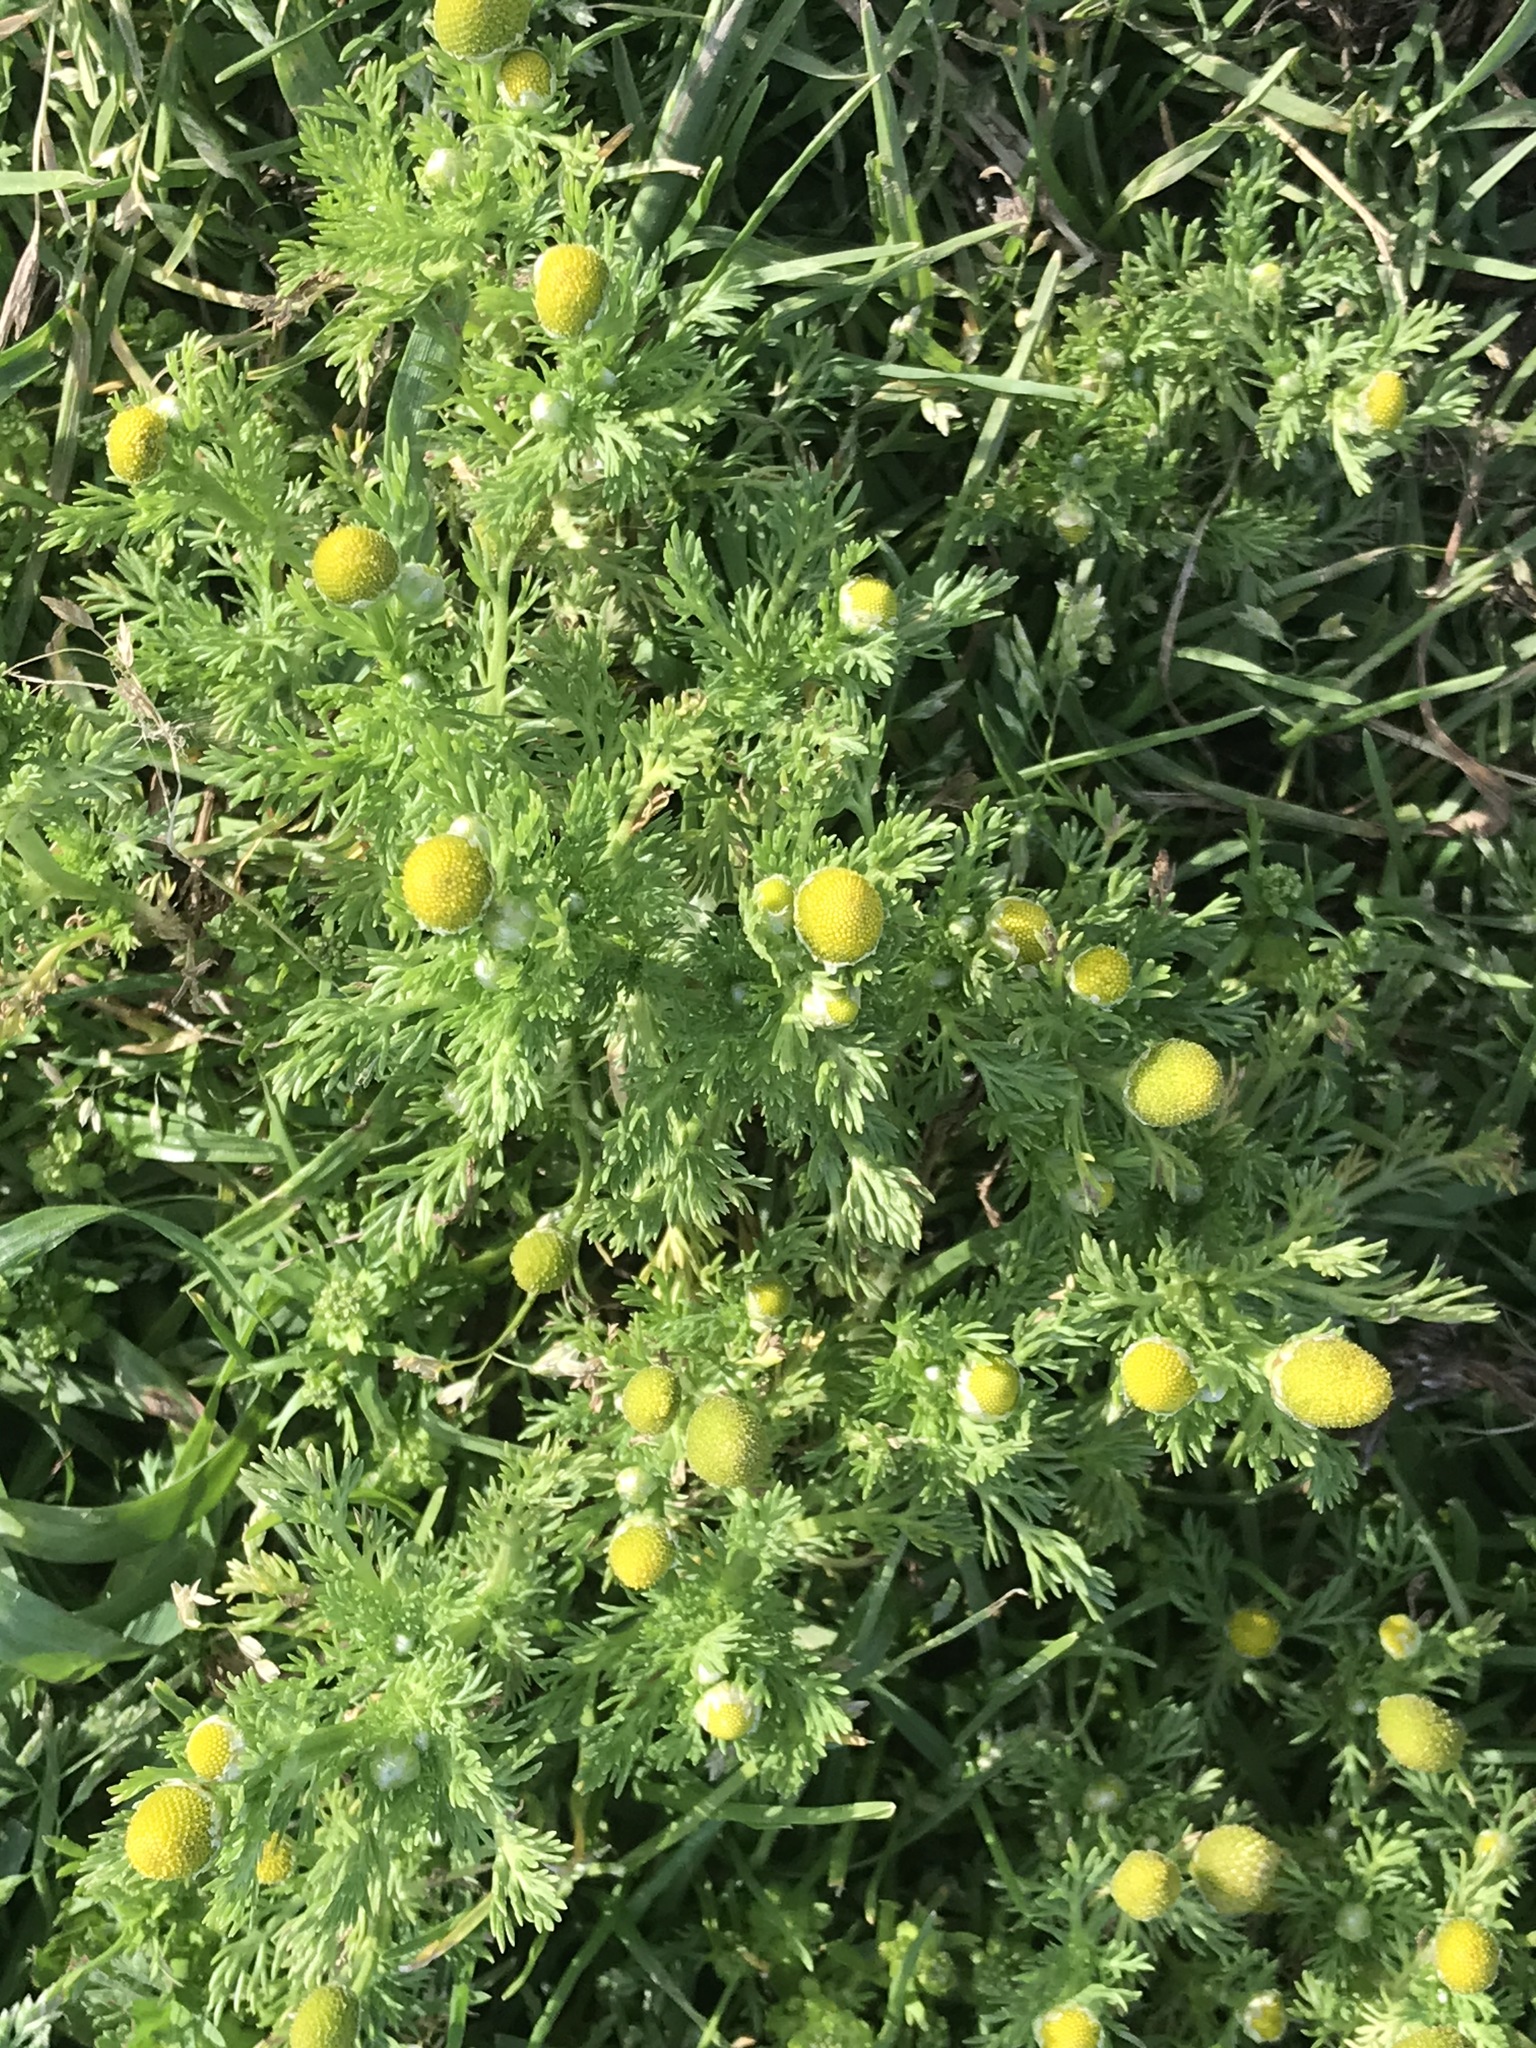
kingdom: Plantae
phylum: Tracheophyta
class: Magnoliopsida
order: Asterales
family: Asteraceae
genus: Matricaria
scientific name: Matricaria discoidea
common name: Disc mayweed
